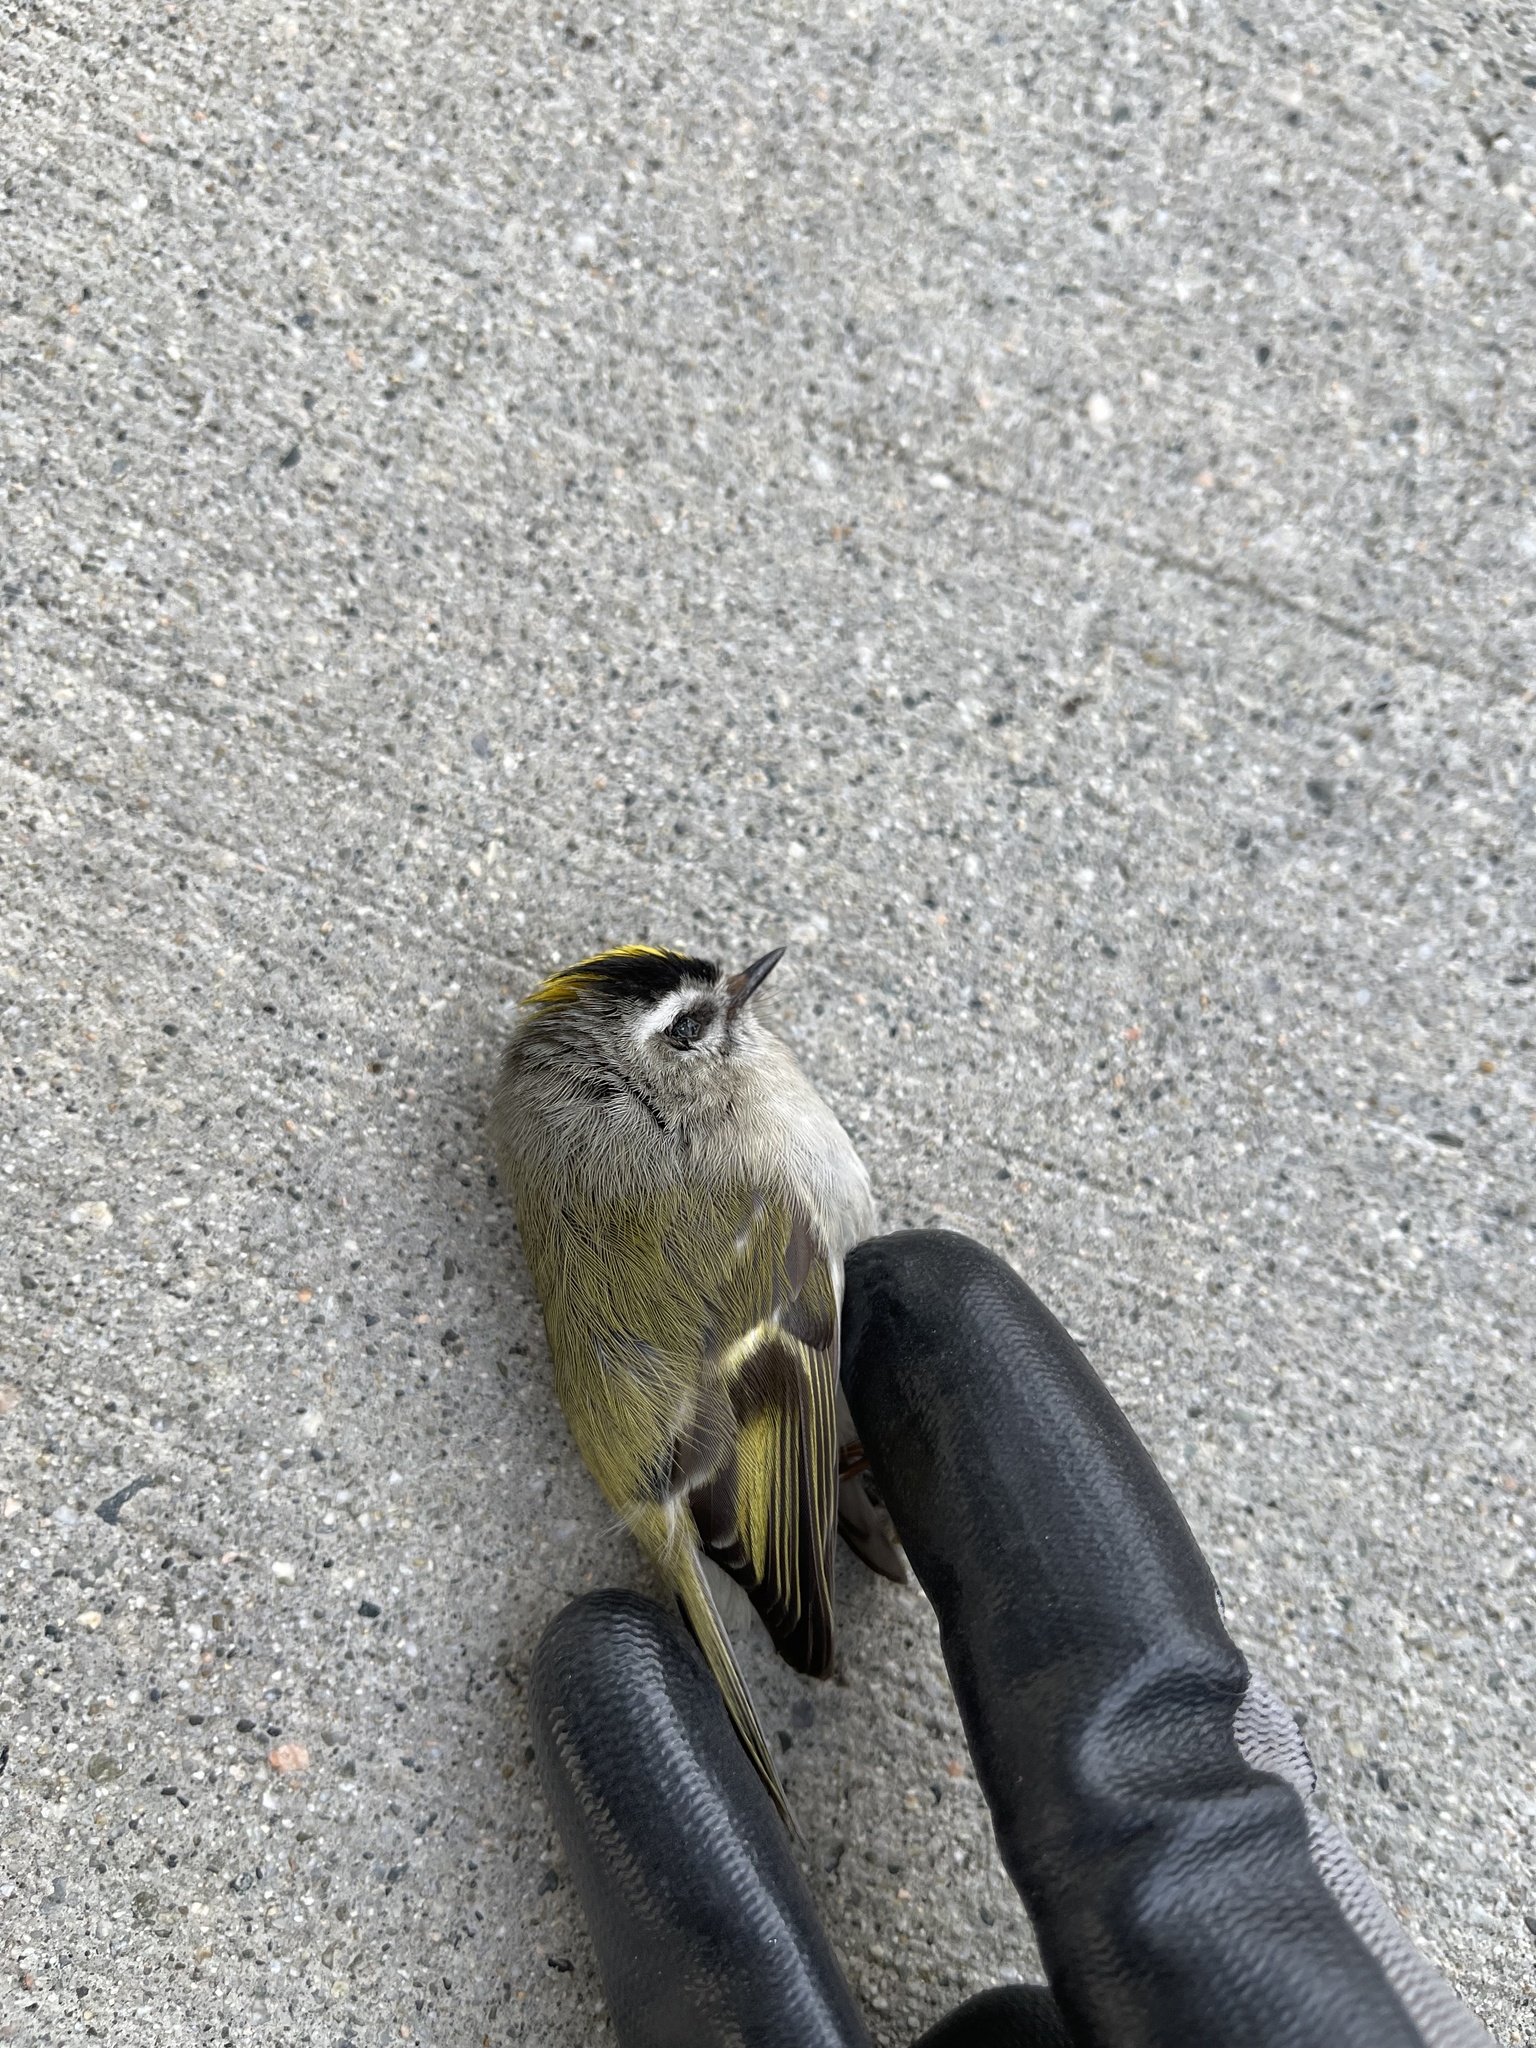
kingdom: Animalia
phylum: Chordata
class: Aves
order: Passeriformes
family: Regulidae
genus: Regulus
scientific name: Regulus satrapa
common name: Golden-crowned kinglet
